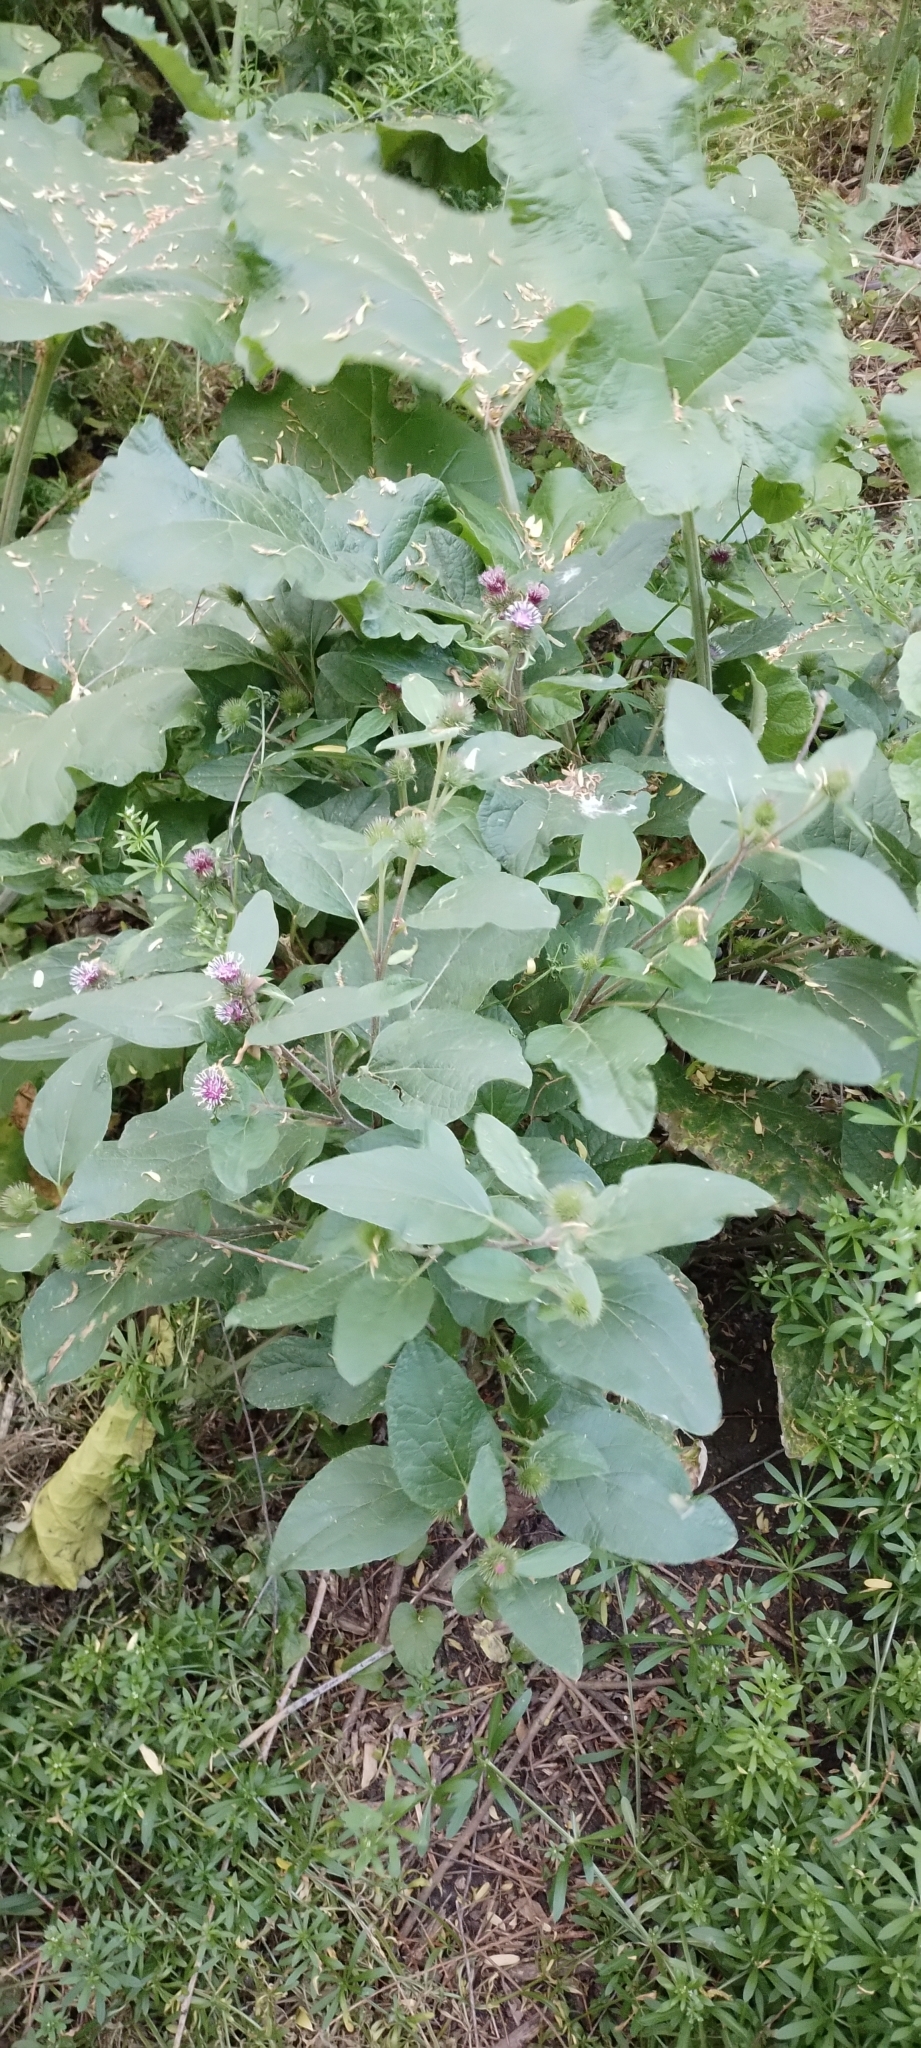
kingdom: Plantae
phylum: Tracheophyta
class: Magnoliopsida
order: Asterales
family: Asteraceae
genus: Arctium
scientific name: Arctium minus
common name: Lesser burdock
